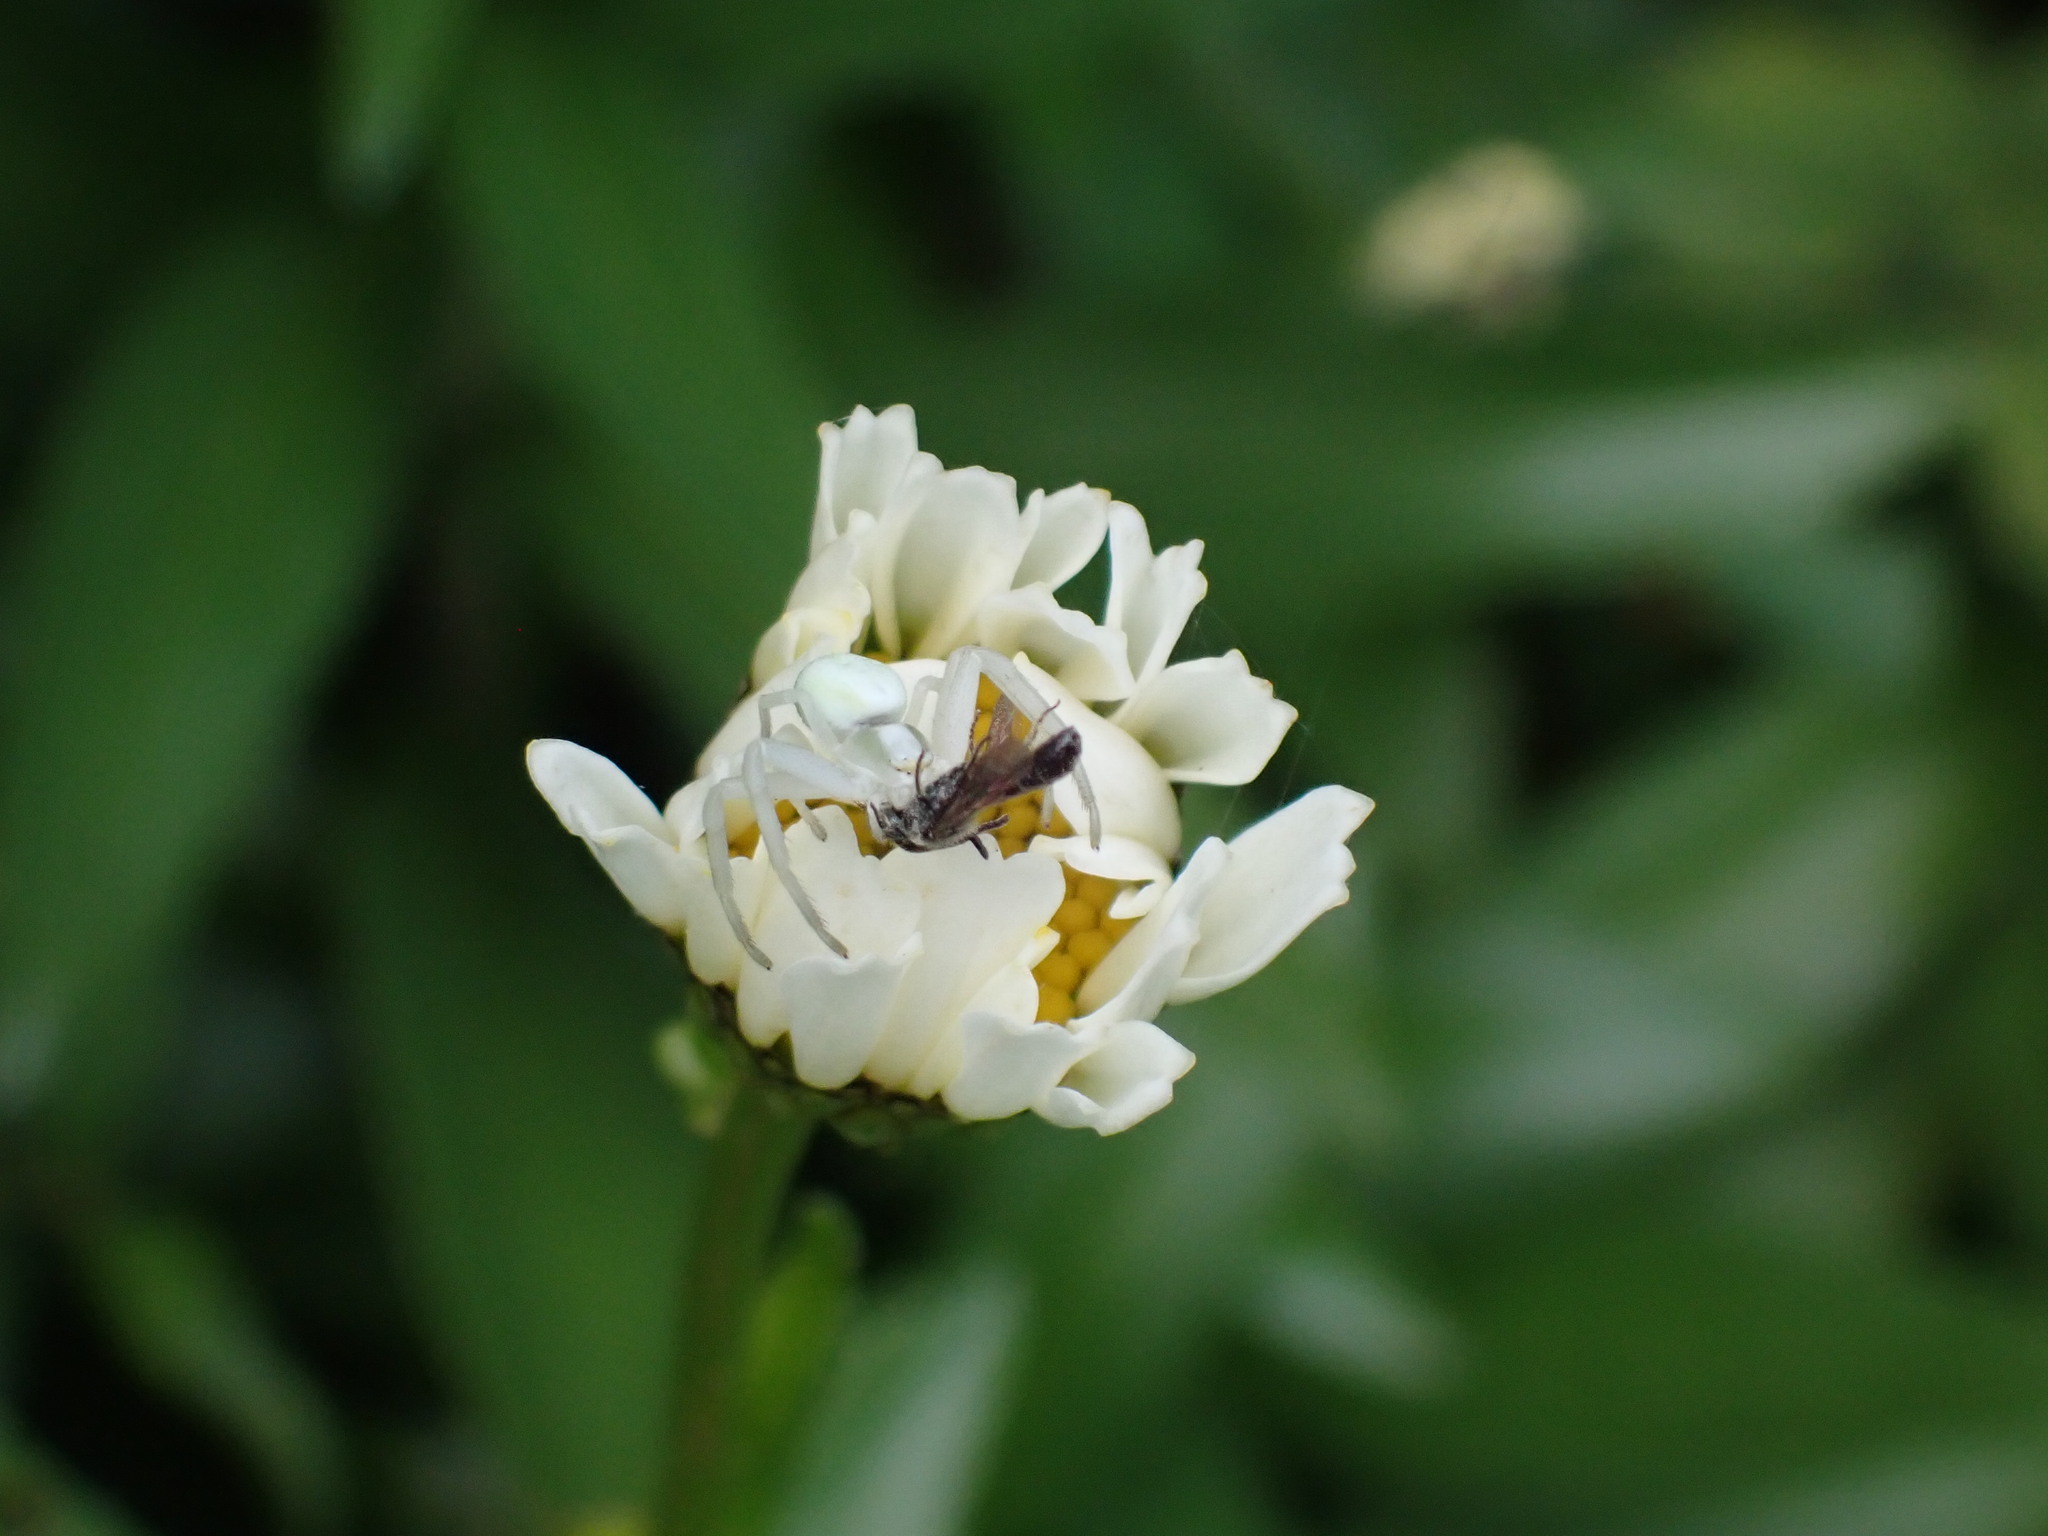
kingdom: Animalia
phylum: Arthropoda
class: Arachnida
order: Araneae
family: Thomisidae
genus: Misumena
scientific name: Misumena vatia
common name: Goldenrod crab spider
